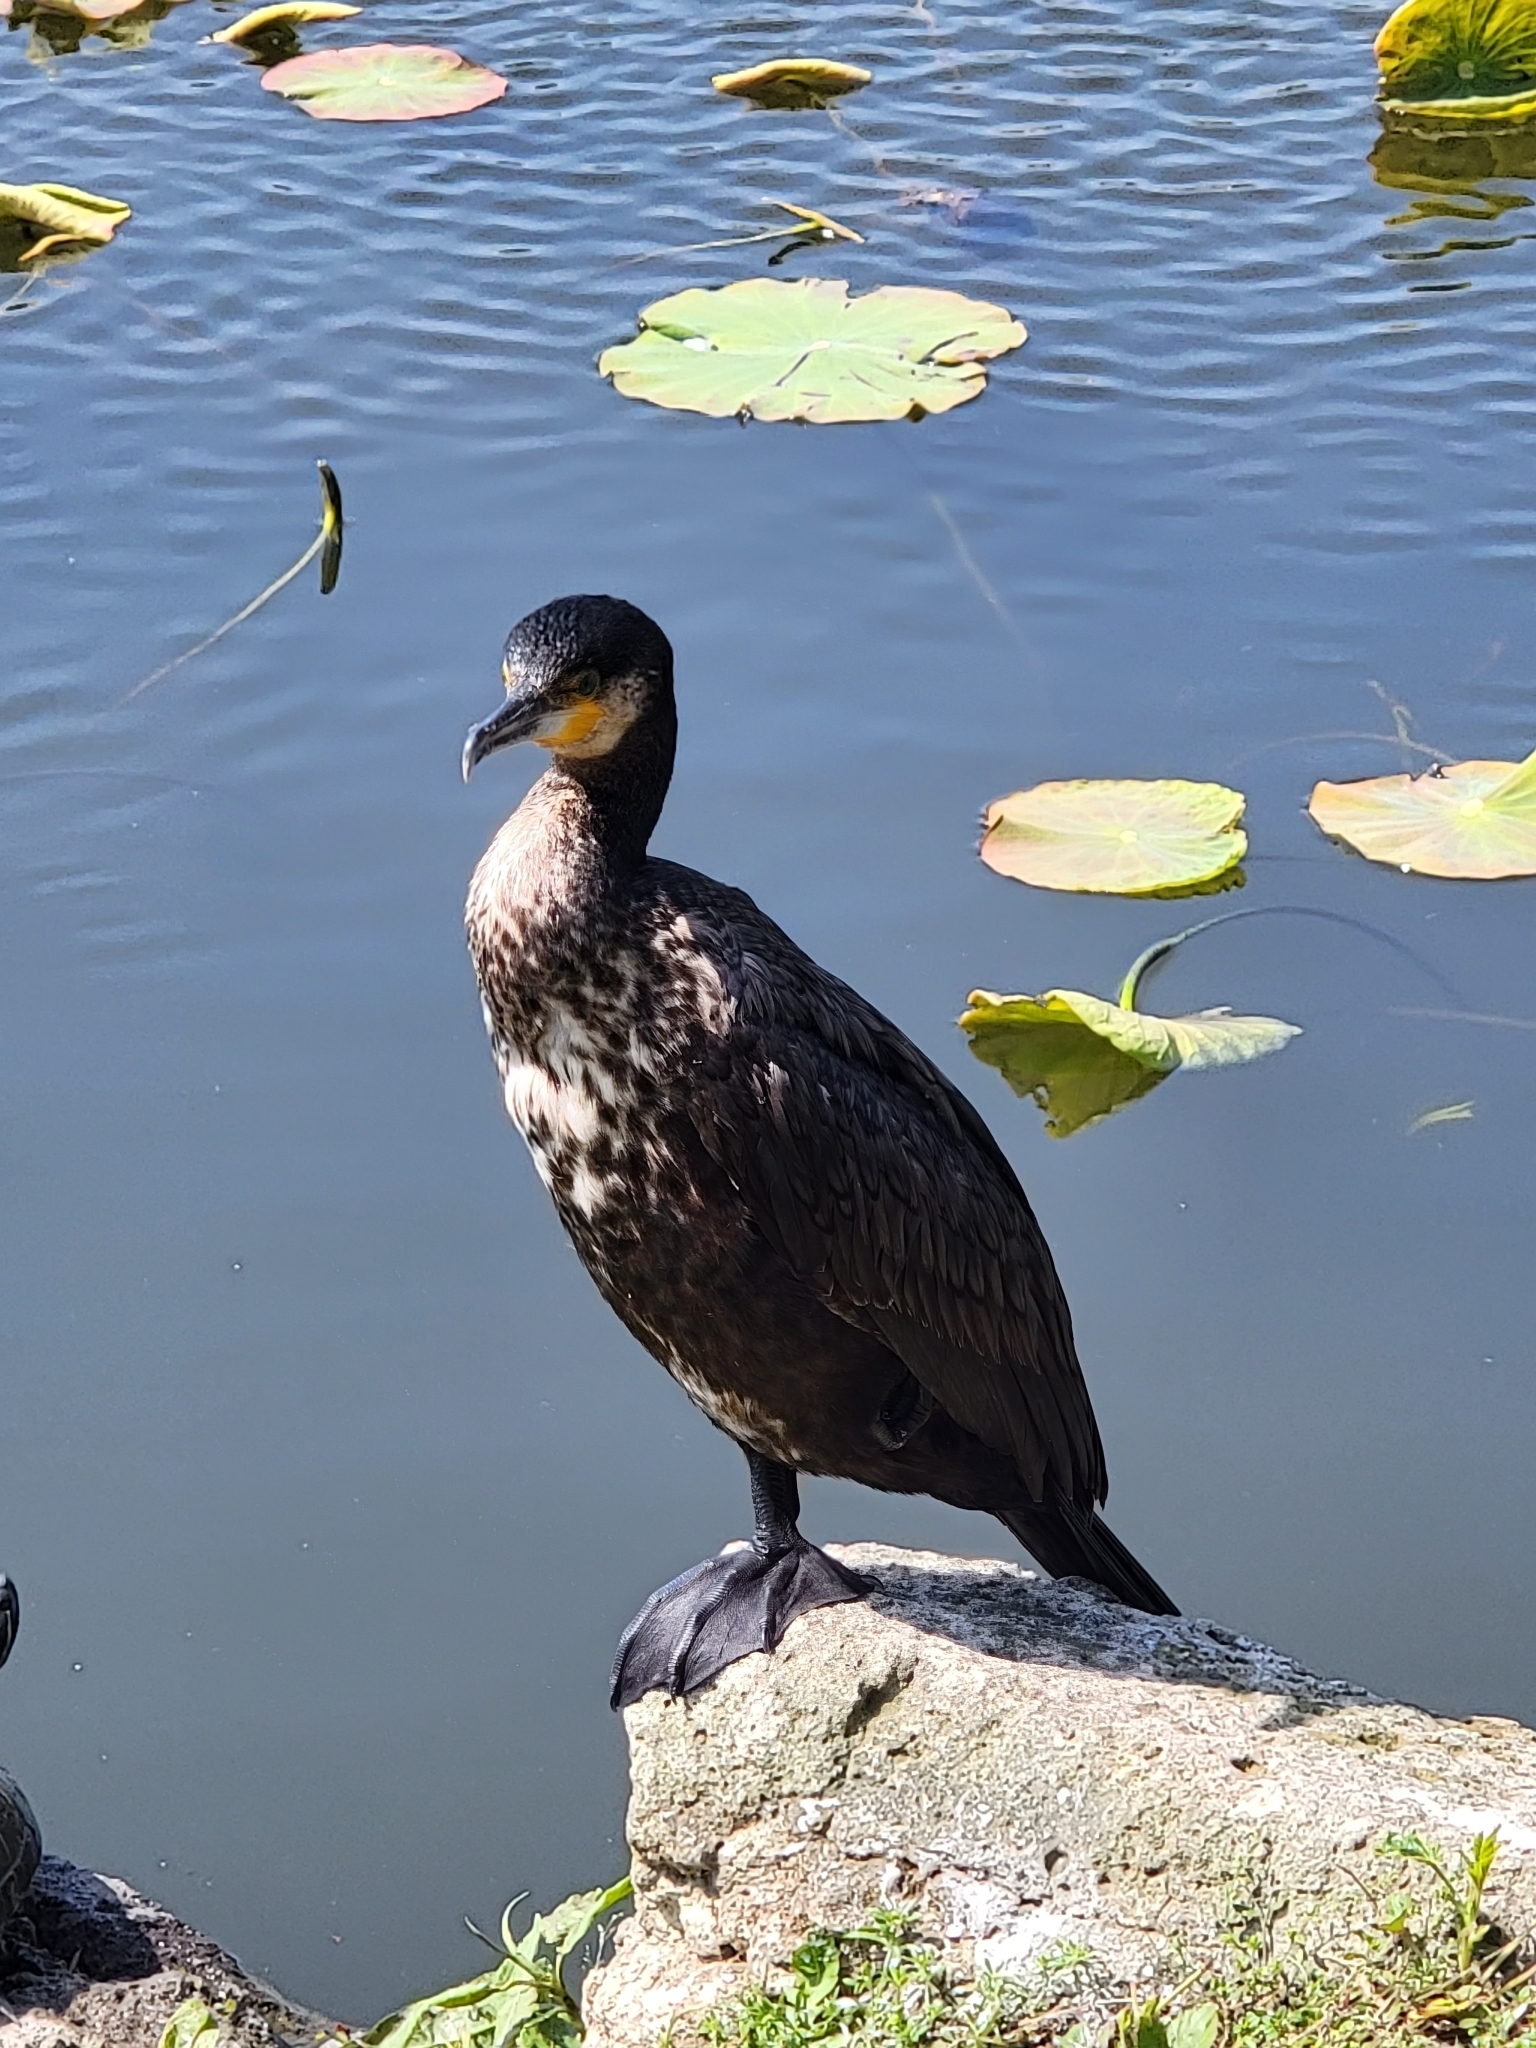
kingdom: Animalia
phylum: Chordata
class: Aves
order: Suliformes
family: Phalacrocoracidae
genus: Phalacrocorax
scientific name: Phalacrocorax carbo
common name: Great cormorant
